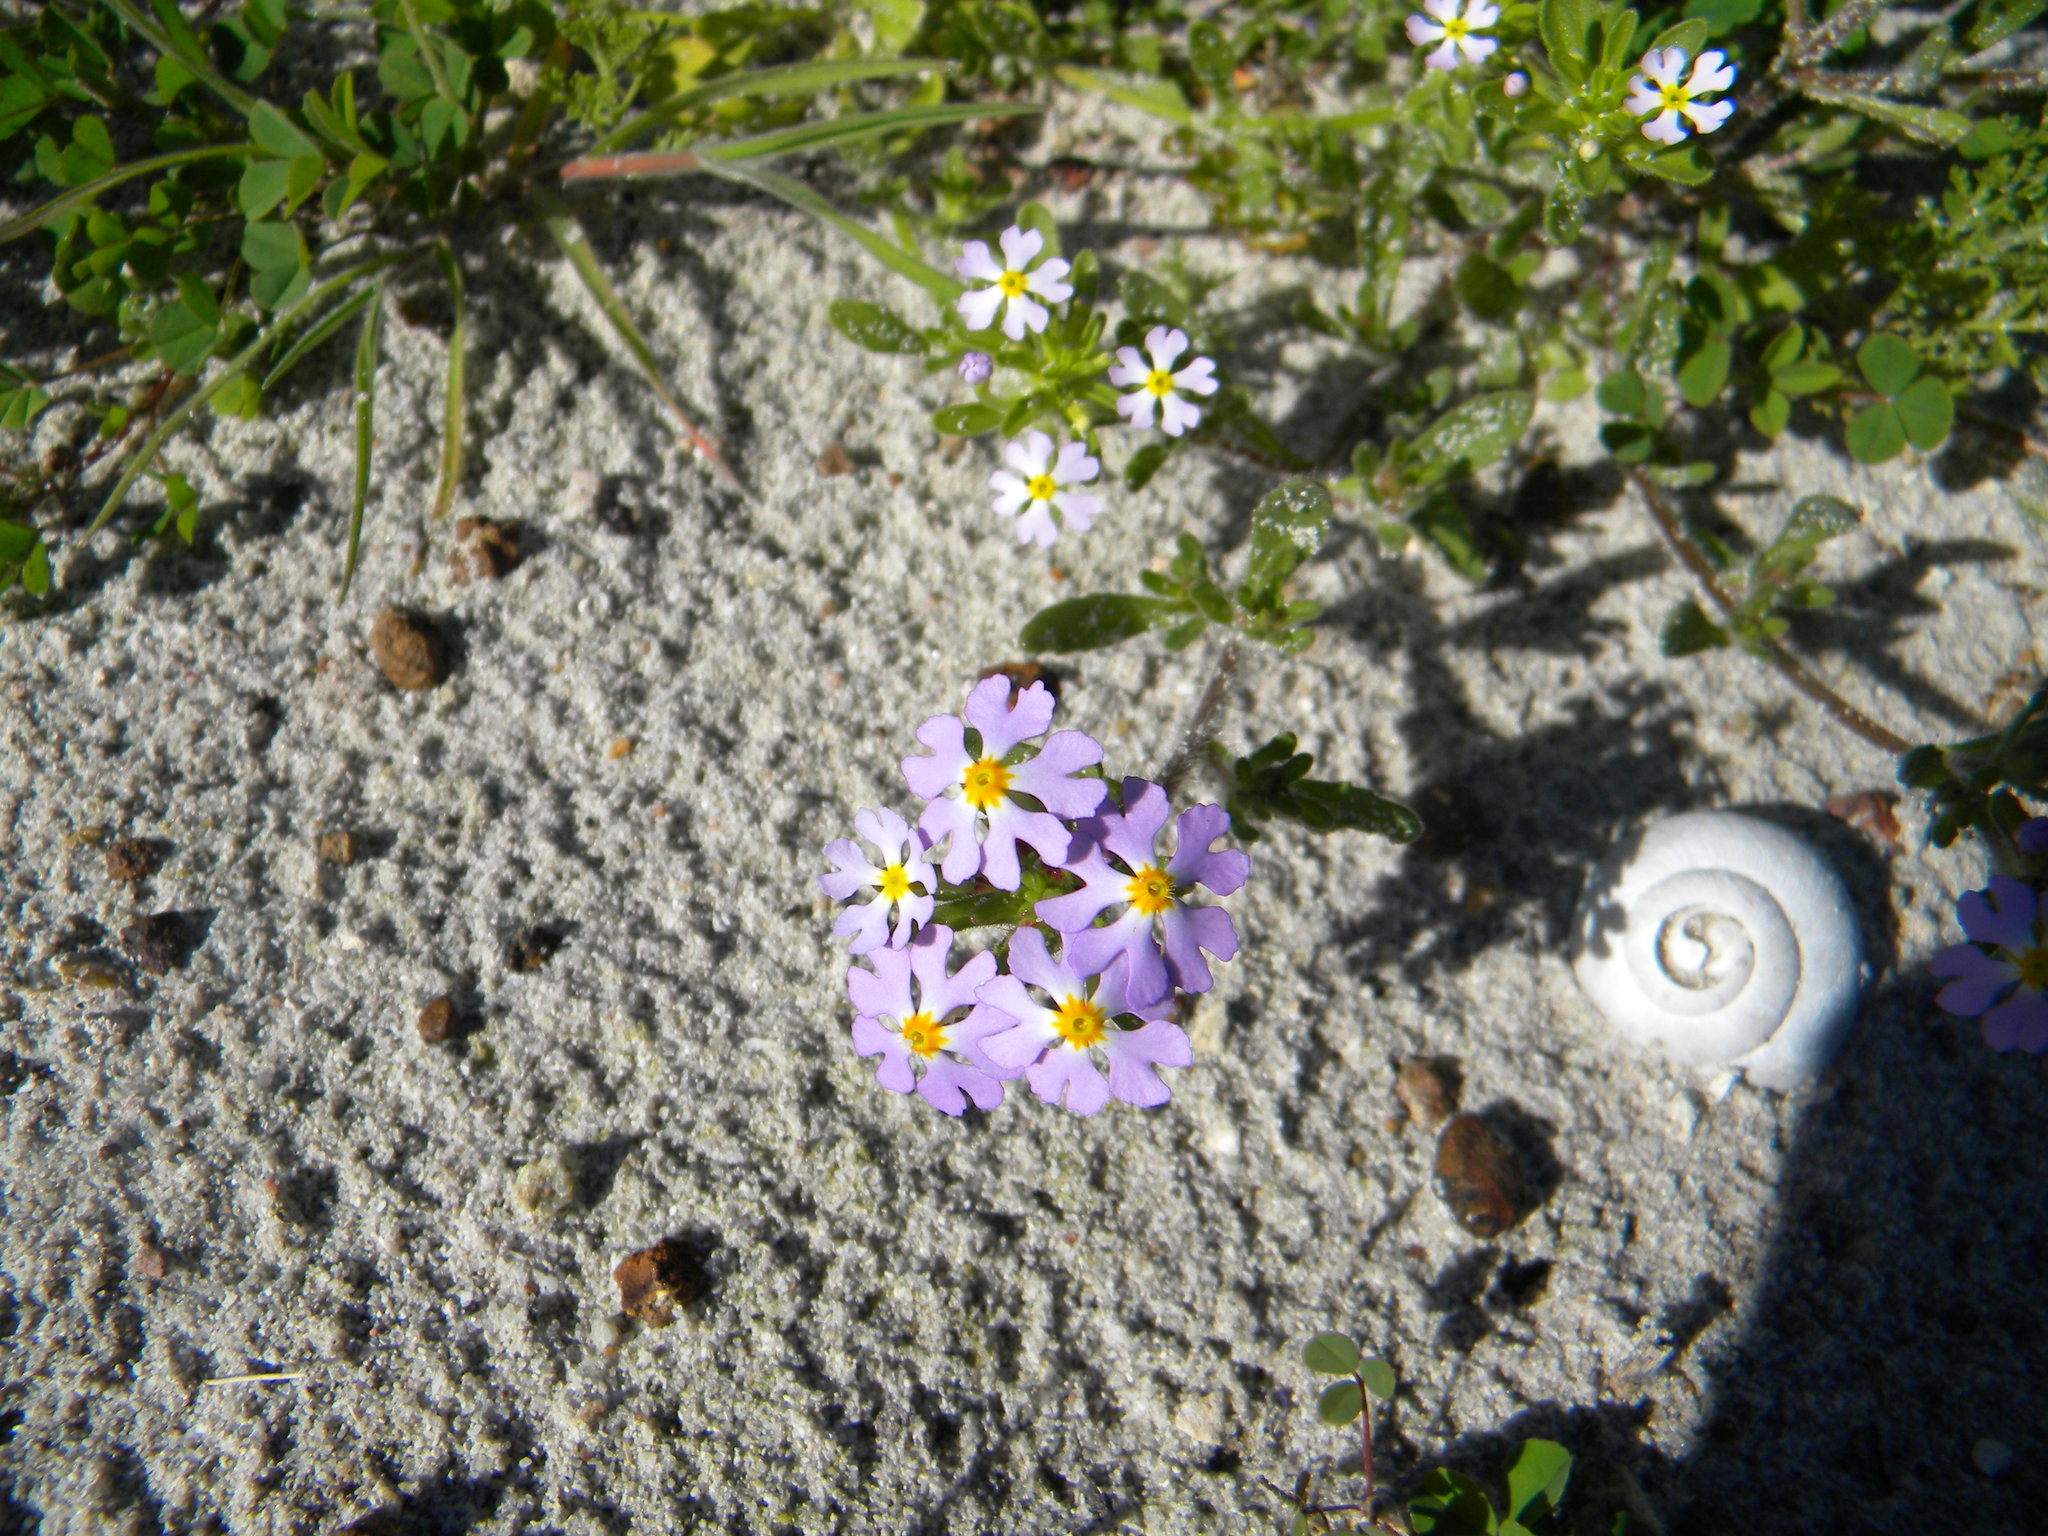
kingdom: Plantae
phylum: Tracheophyta
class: Magnoliopsida
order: Lamiales
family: Scrophulariaceae
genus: Zaluzianskya
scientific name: Zaluzianskya villosa
